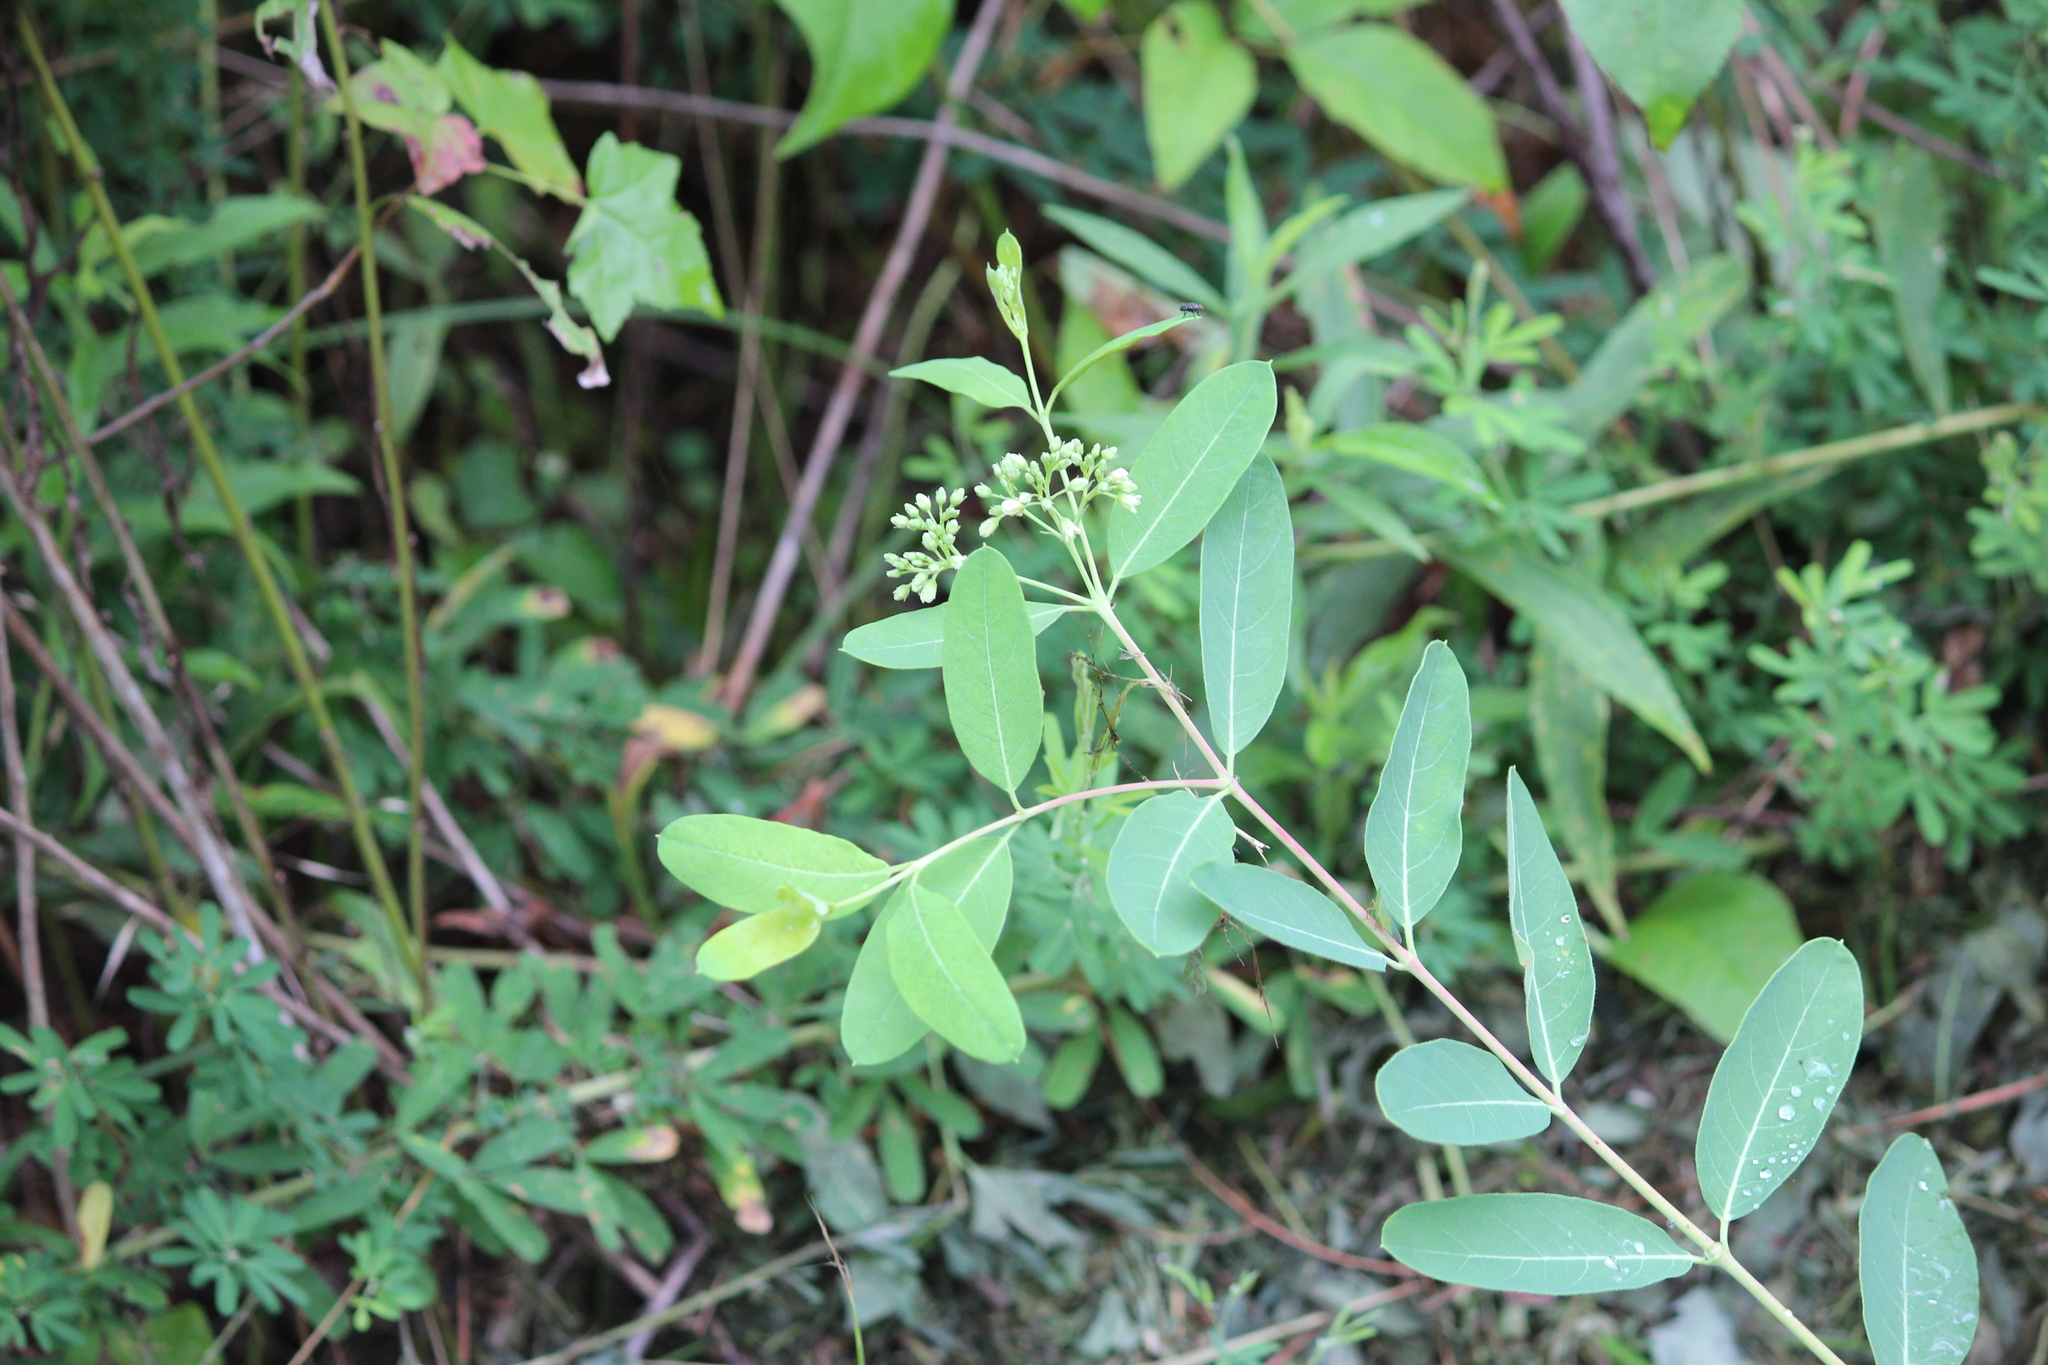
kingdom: Plantae
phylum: Tracheophyta
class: Magnoliopsida
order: Gentianales
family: Apocynaceae
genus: Apocynum
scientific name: Apocynum cannabinum
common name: Hemp dogbane
